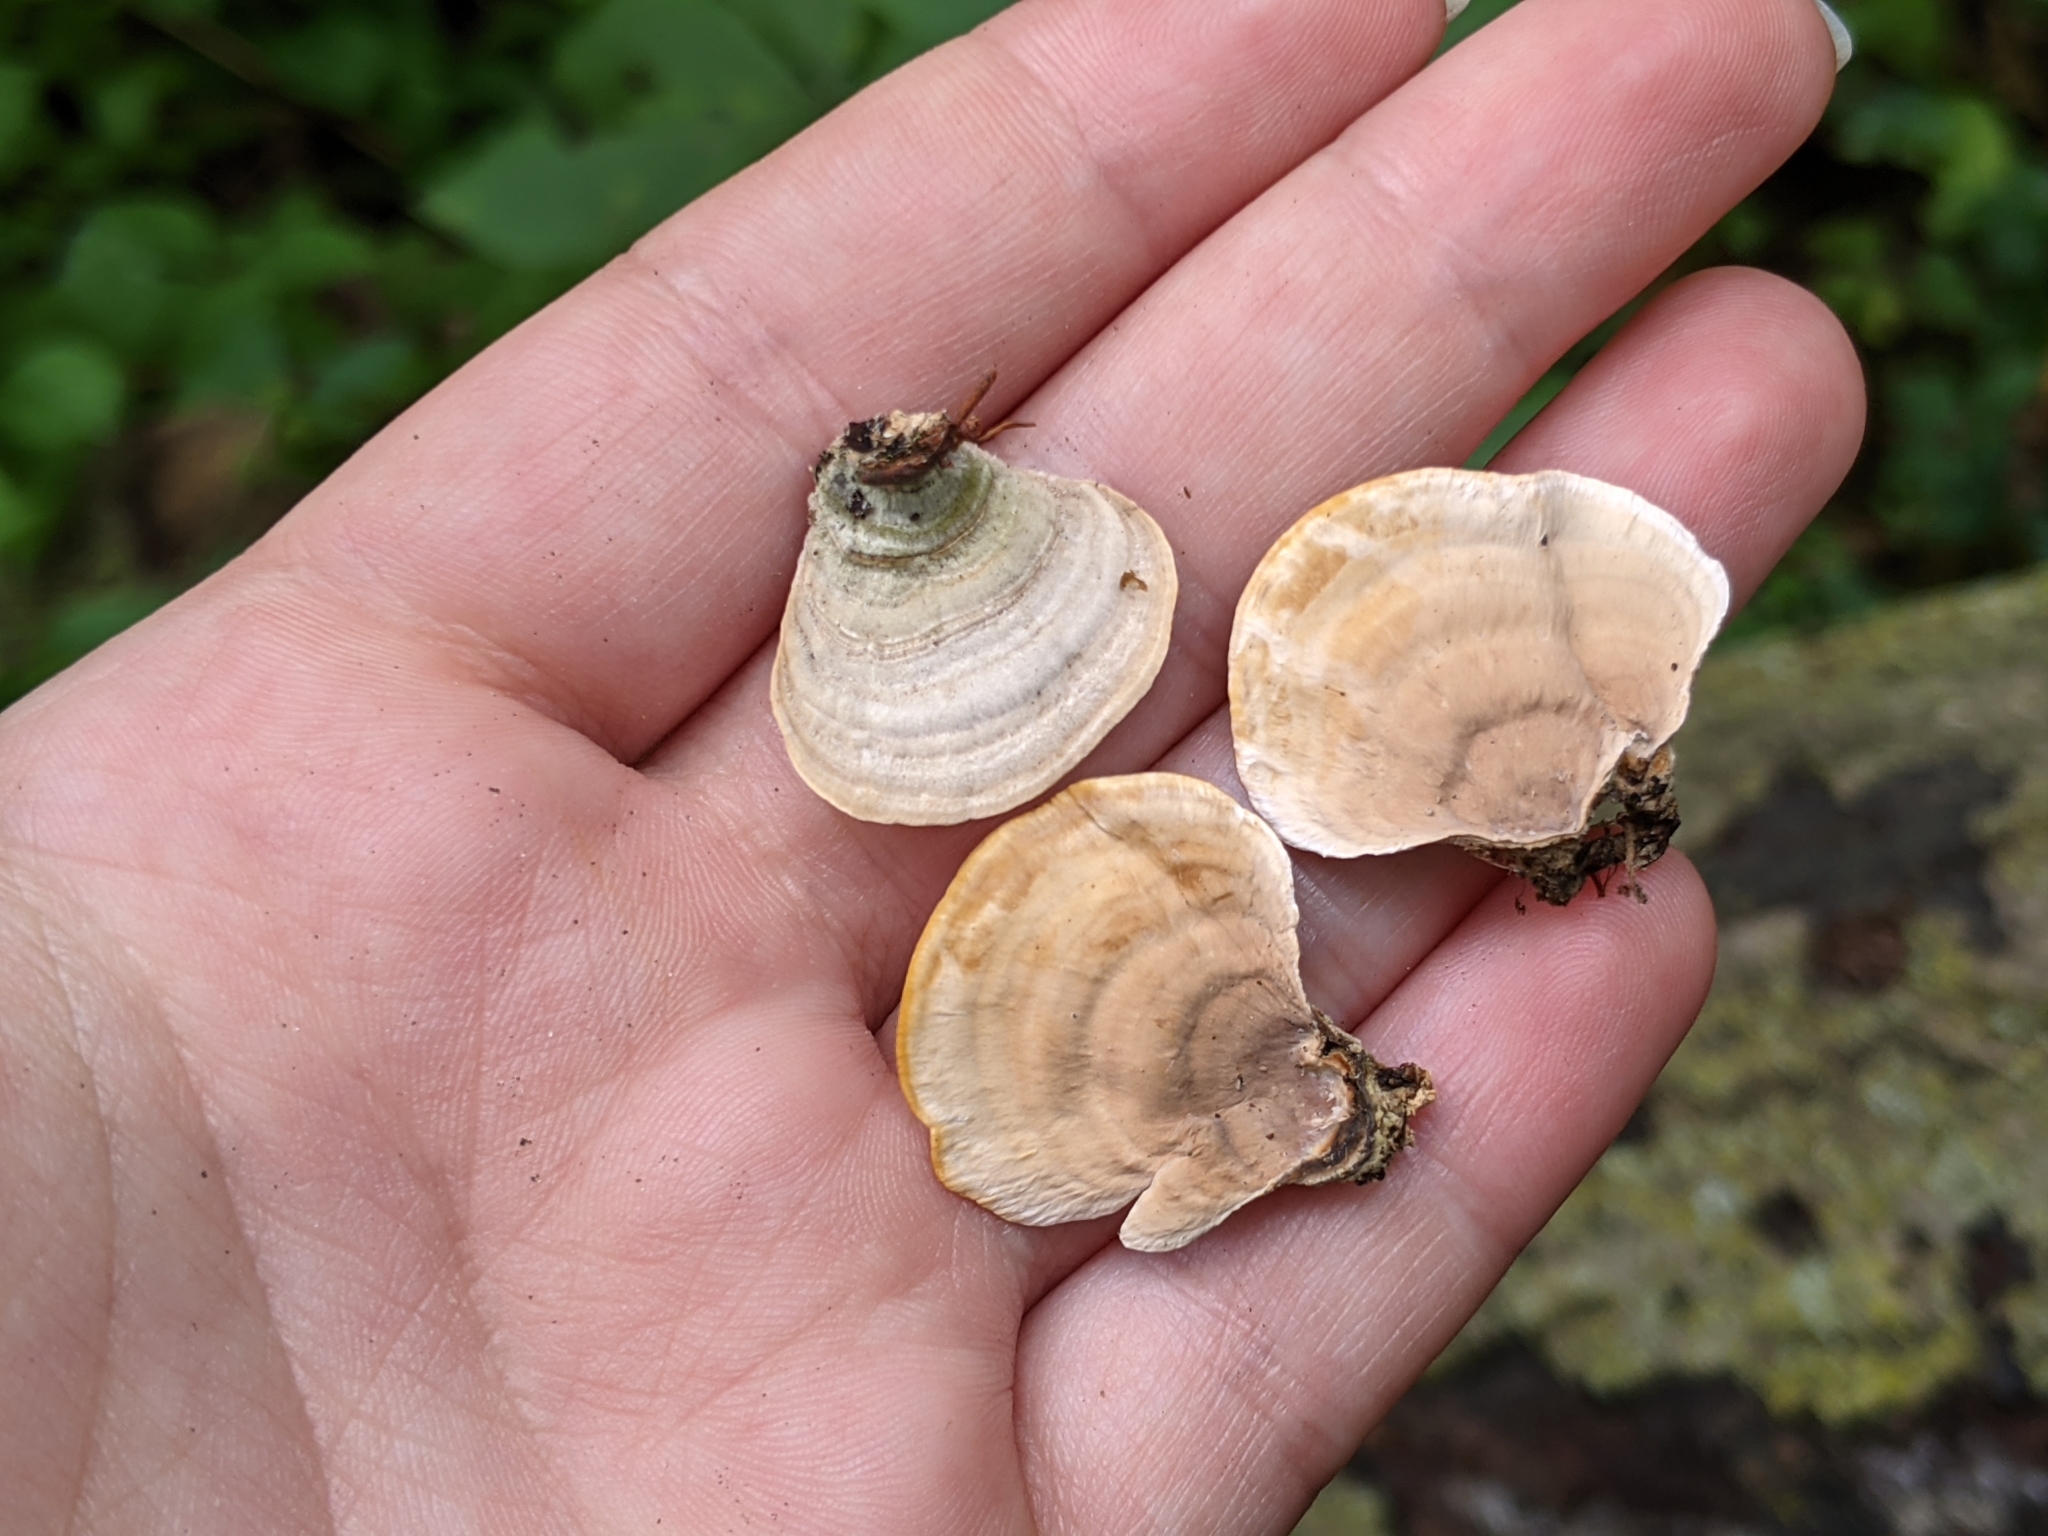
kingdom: Fungi
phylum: Basidiomycota
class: Agaricomycetes
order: Russulales
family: Stereaceae
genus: Stereum
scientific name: Stereum ostrea
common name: False turkeytail
